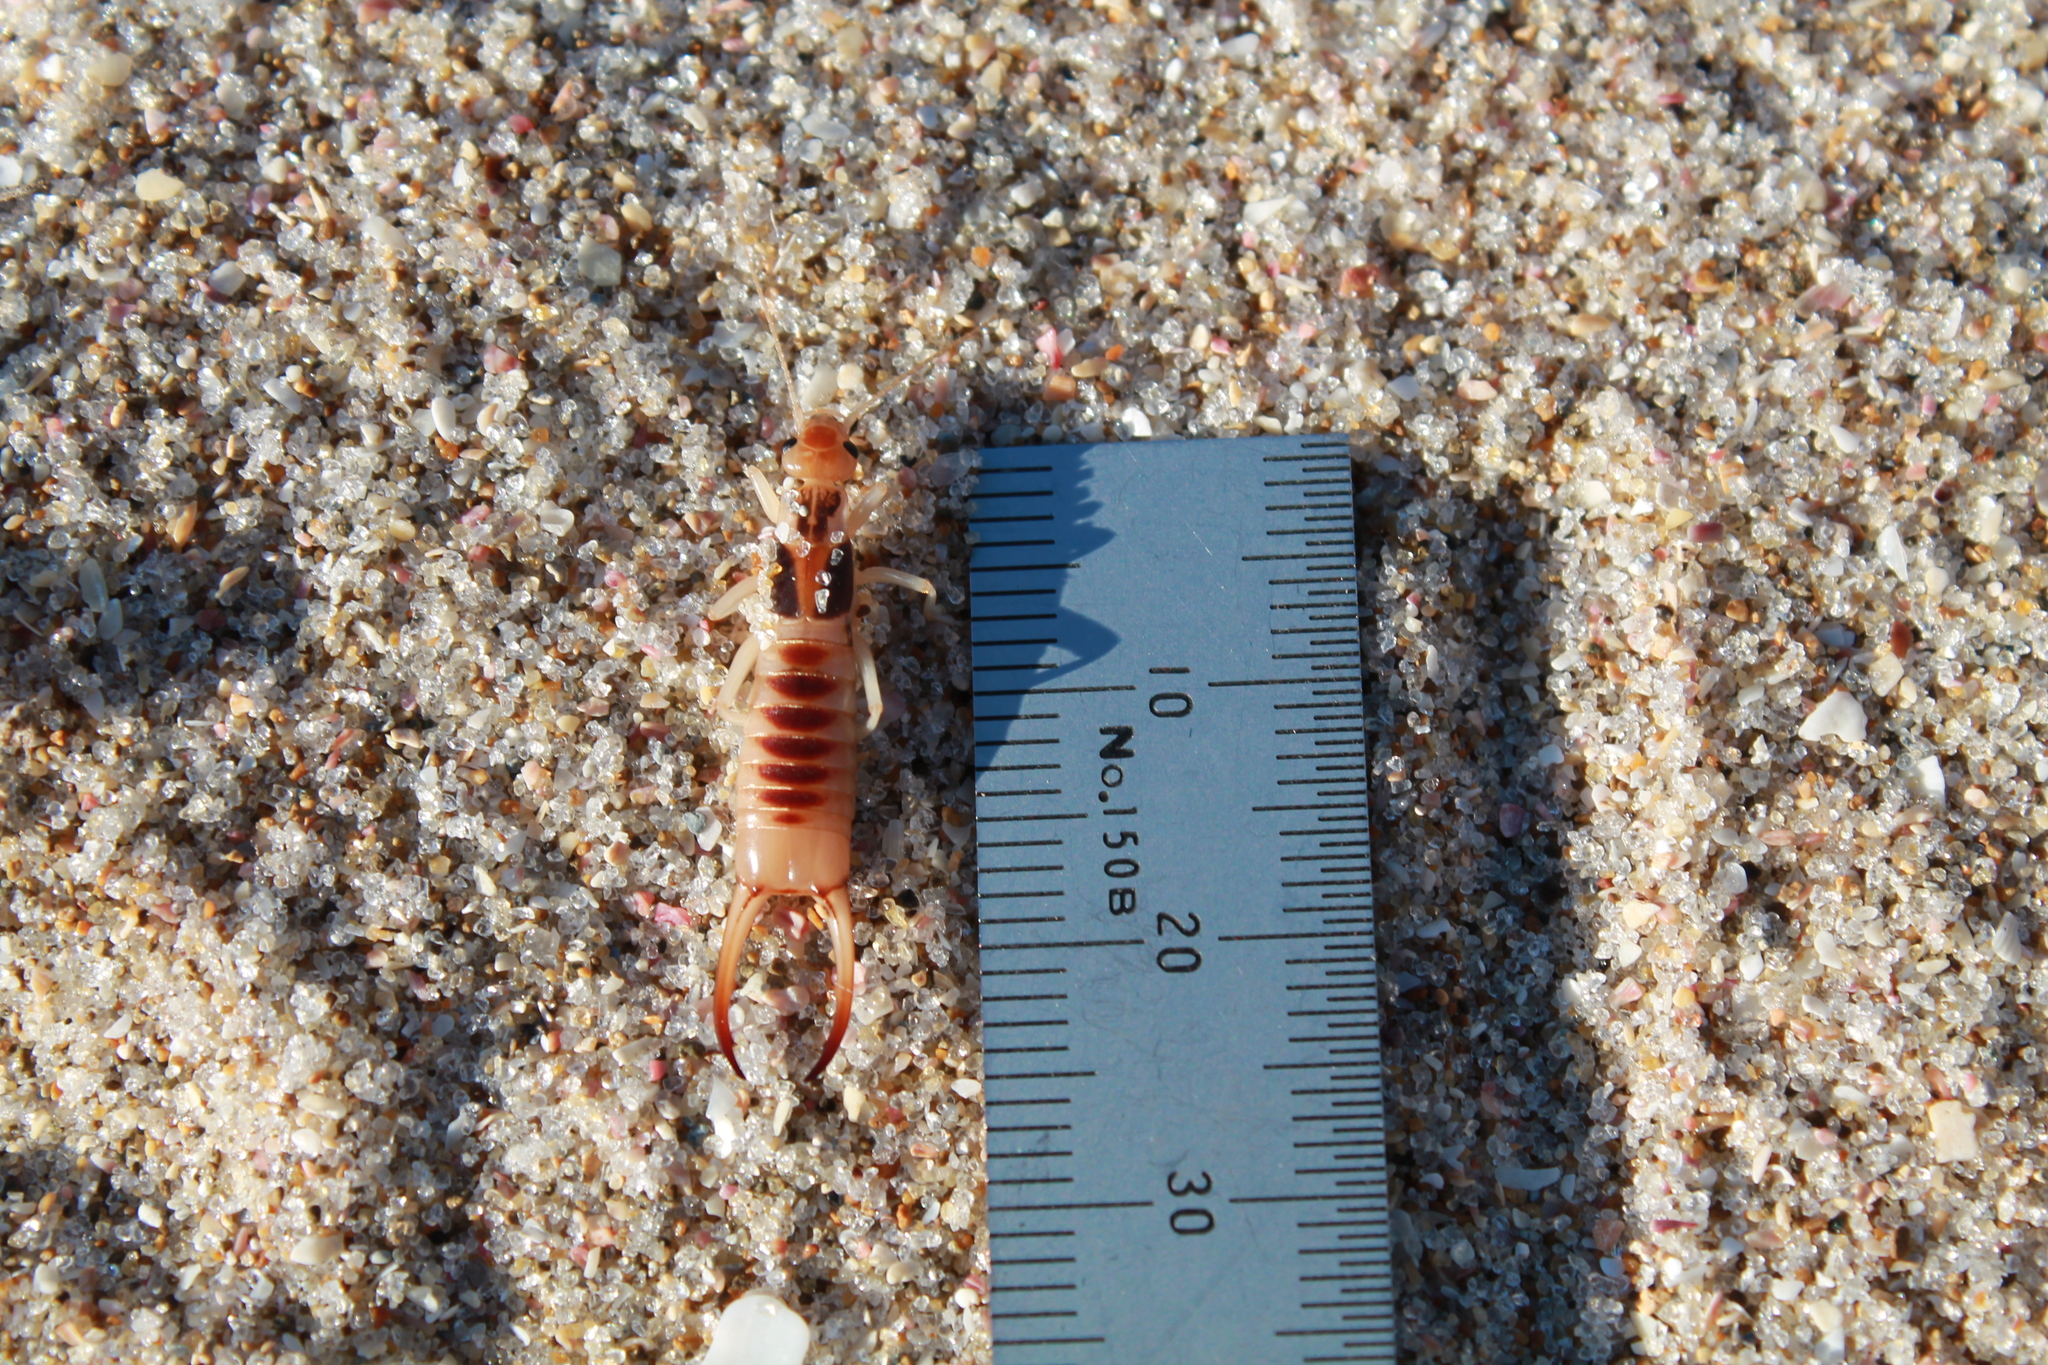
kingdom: Animalia
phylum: Arthropoda
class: Insecta
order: Dermaptera
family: Labiduridae
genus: Labidura
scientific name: Labidura riparia
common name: Striped earwig
